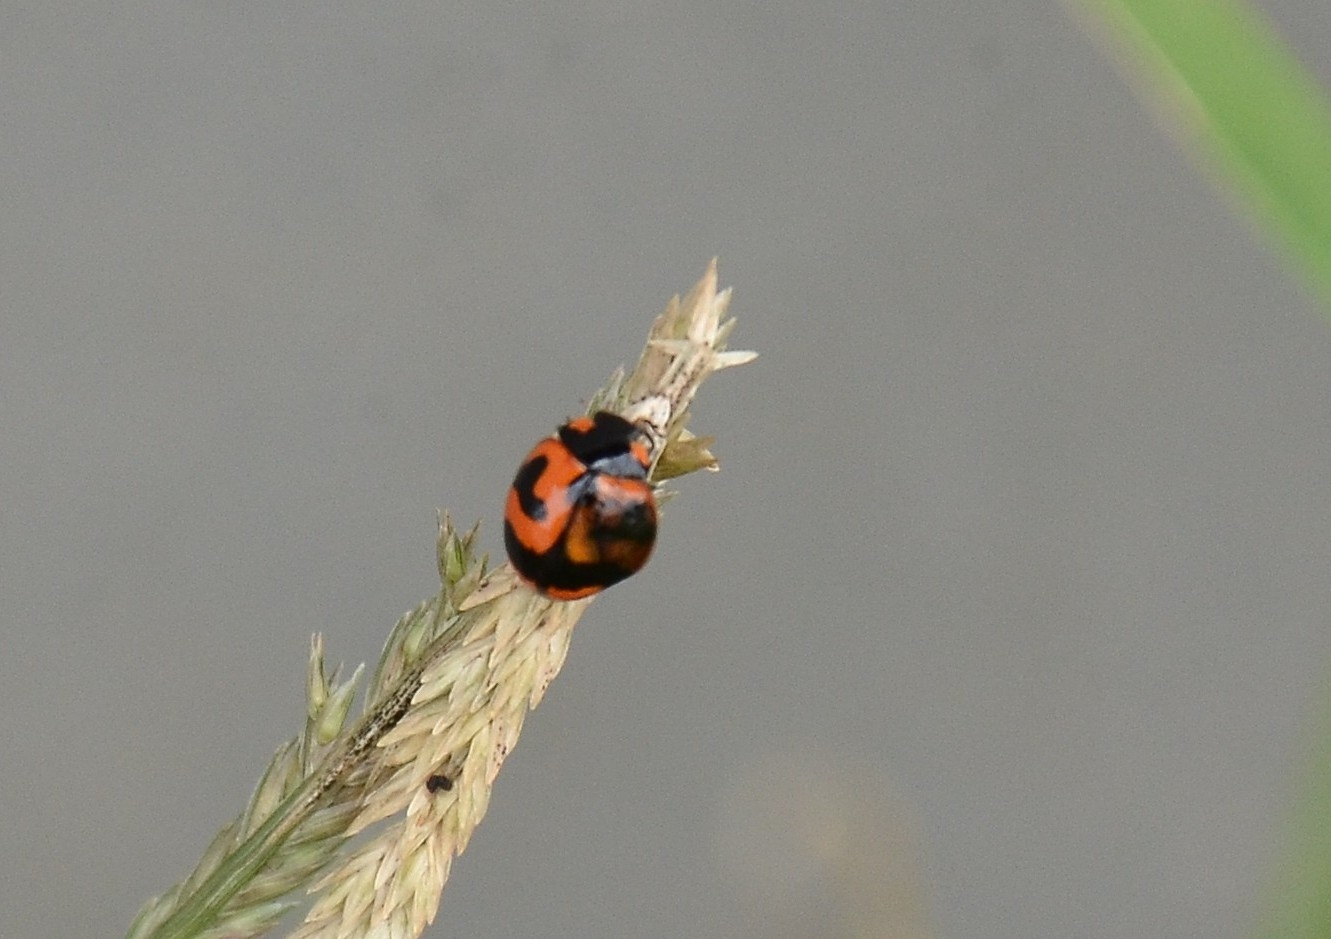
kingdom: Animalia
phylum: Arthropoda
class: Insecta
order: Coleoptera
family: Coccinellidae
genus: Coccinella
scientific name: Coccinella transversalis
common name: Transverse lady beetle
